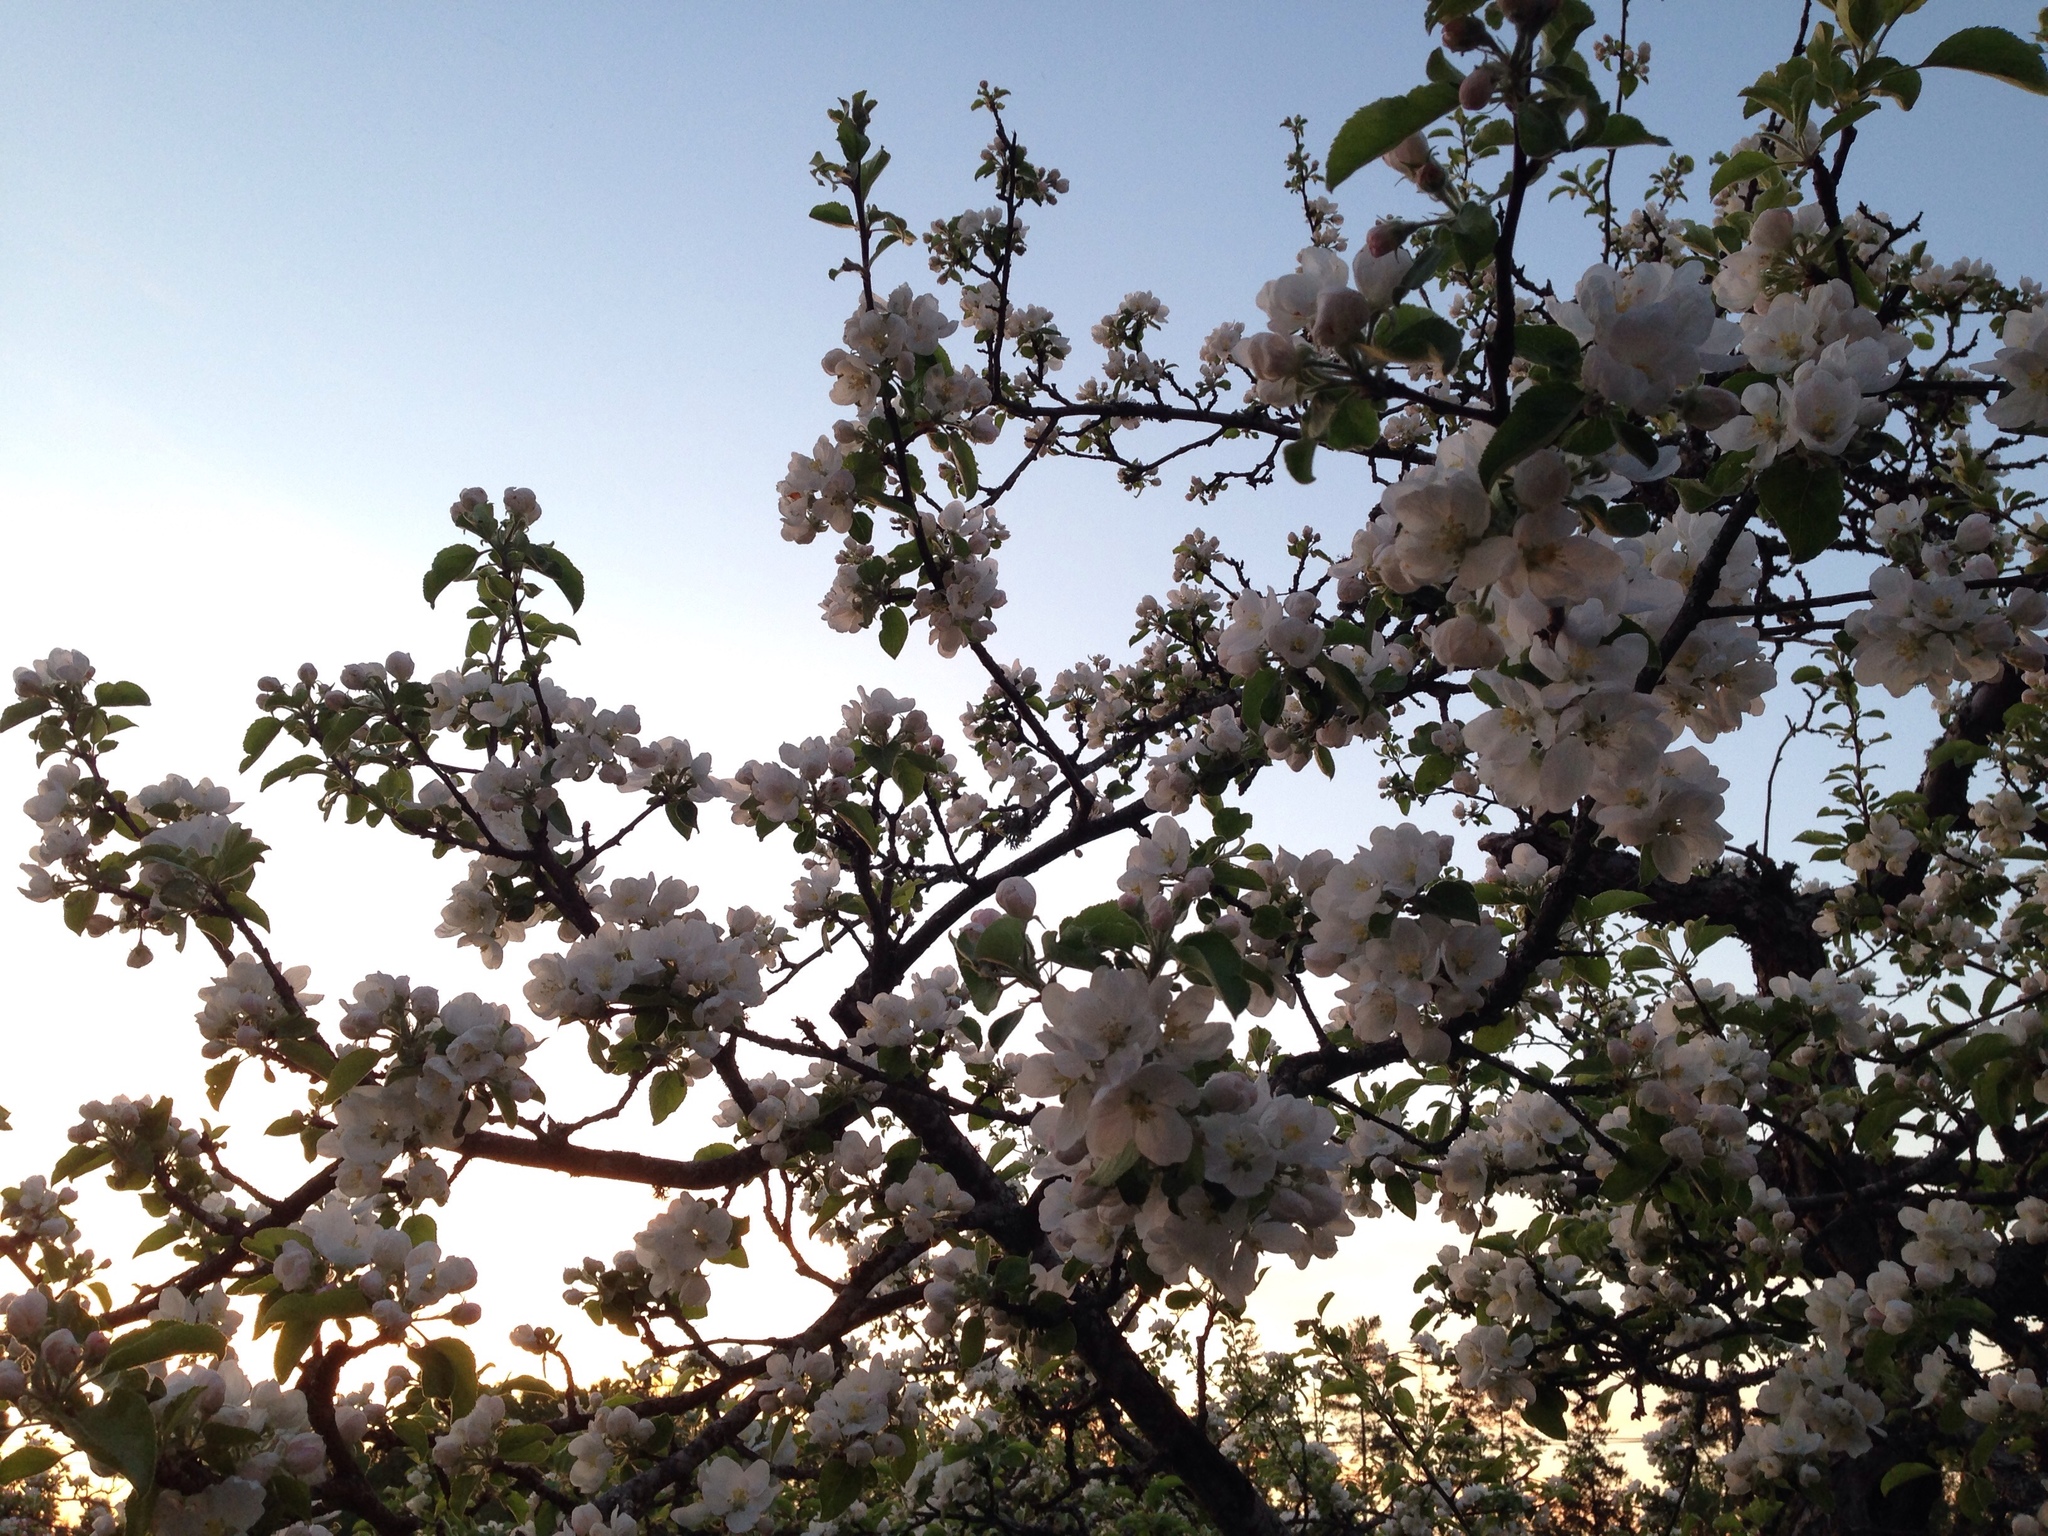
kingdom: Plantae
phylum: Tracheophyta
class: Magnoliopsida
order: Rosales
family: Rosaceae
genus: Malus
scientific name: Malus domestica
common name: Apple
